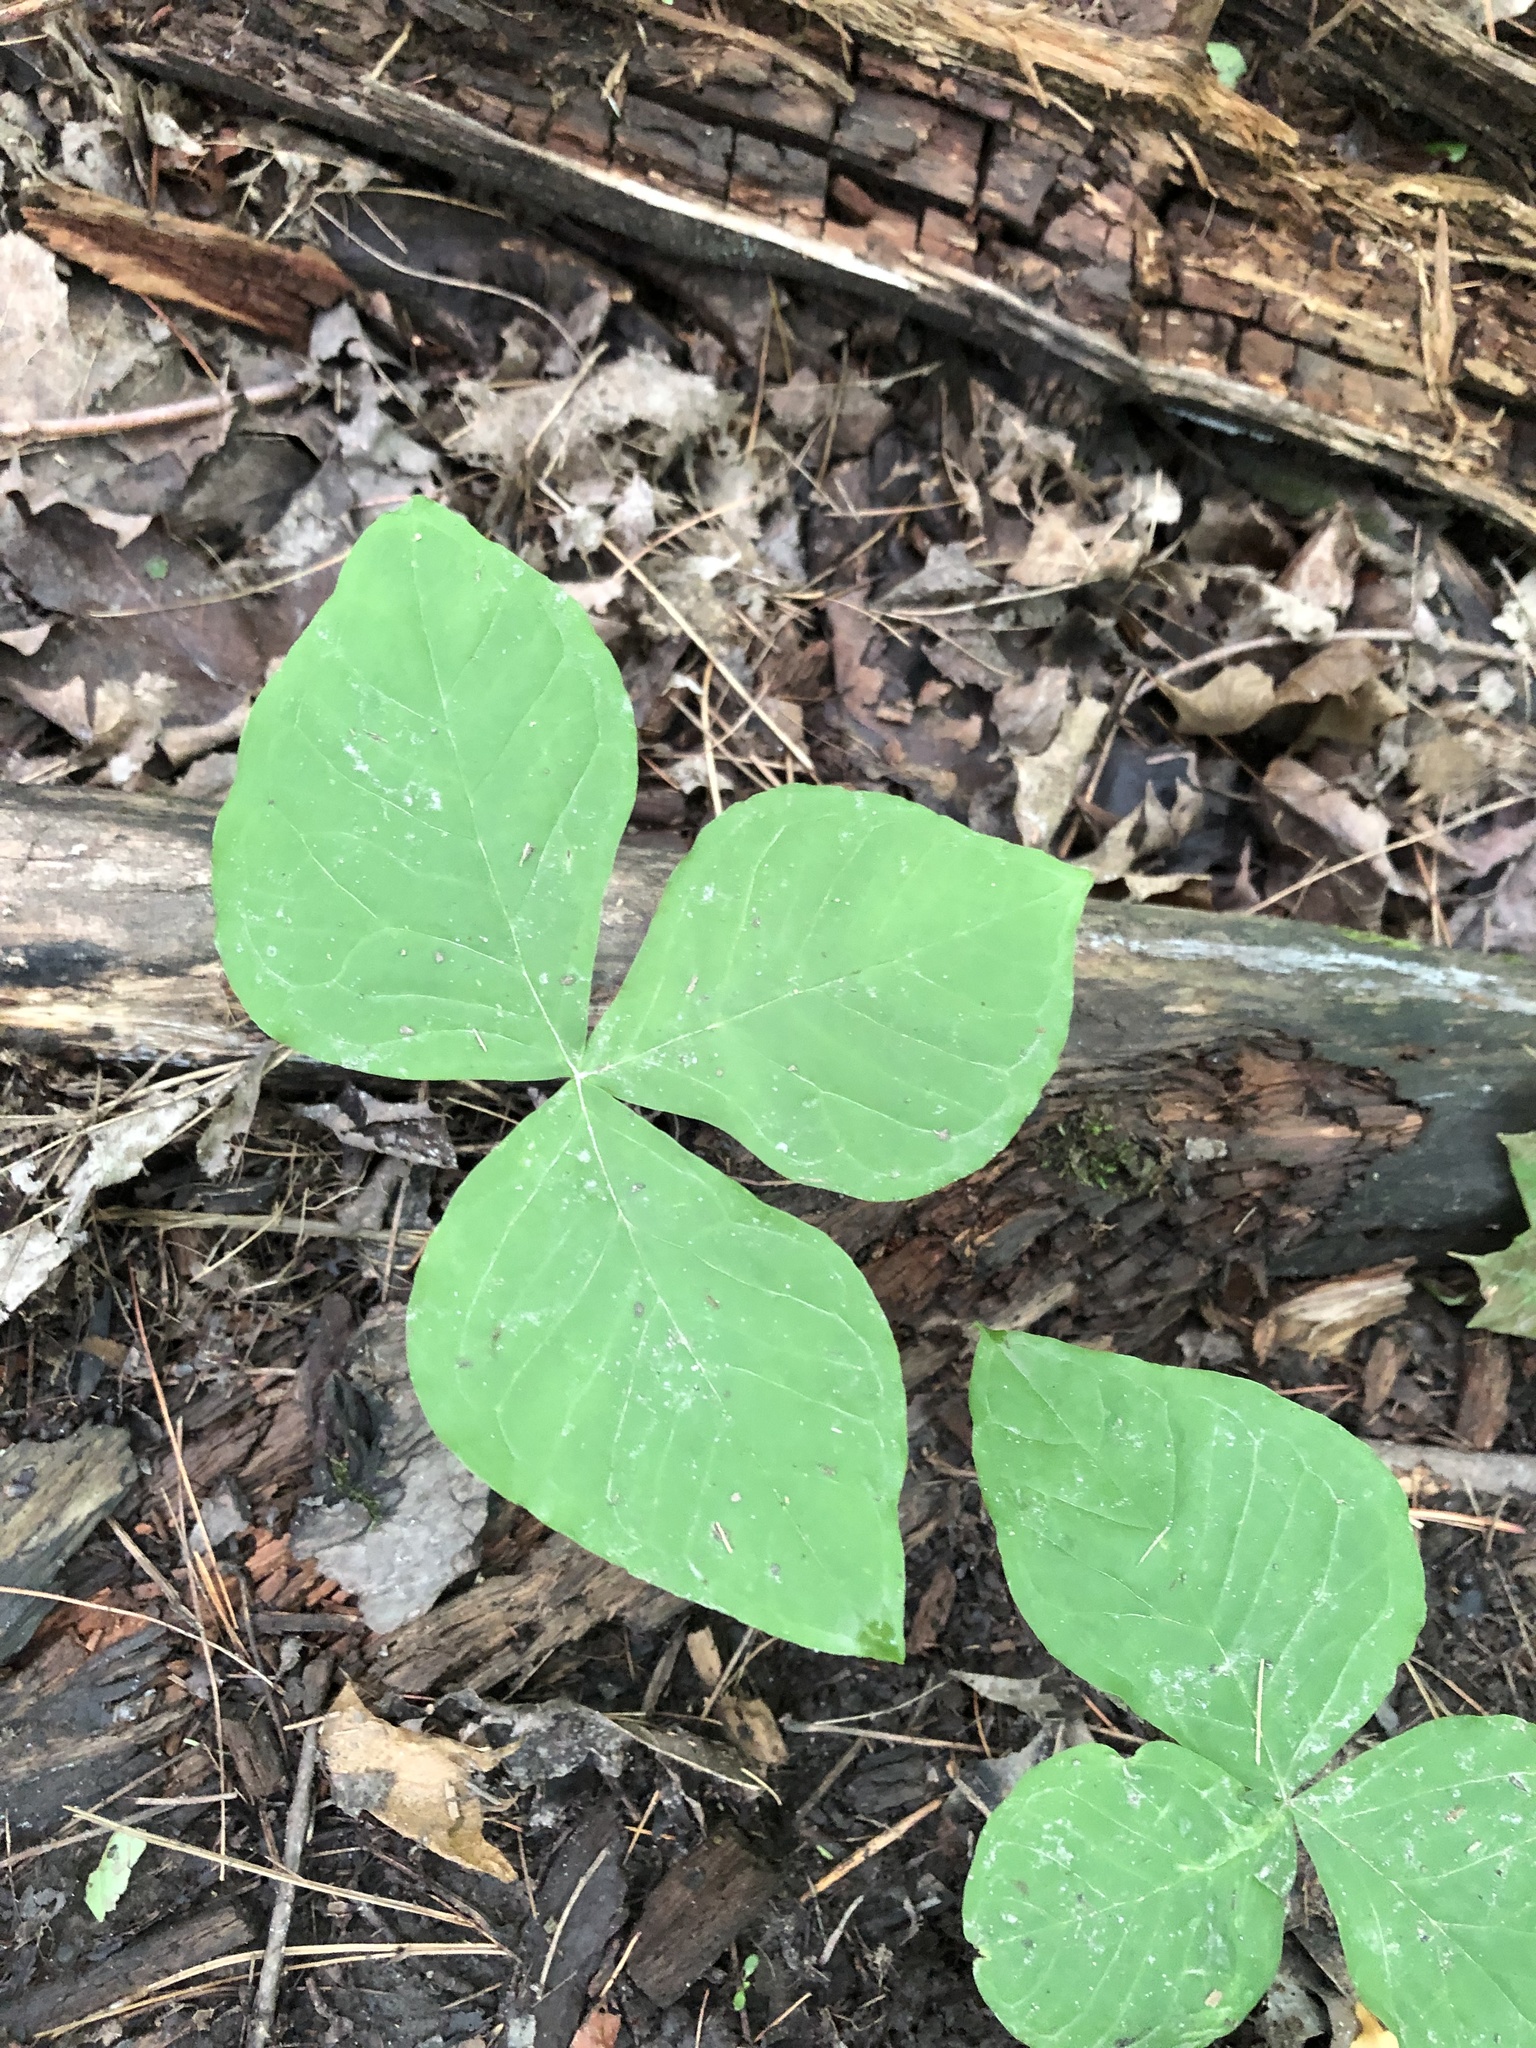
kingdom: Plantae
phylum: Tracheophyta
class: Liliopsida
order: Alismatales
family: Araceae
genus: Arisaema
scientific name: Arisaema triphyllum
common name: Jack-in-the-pulpit
